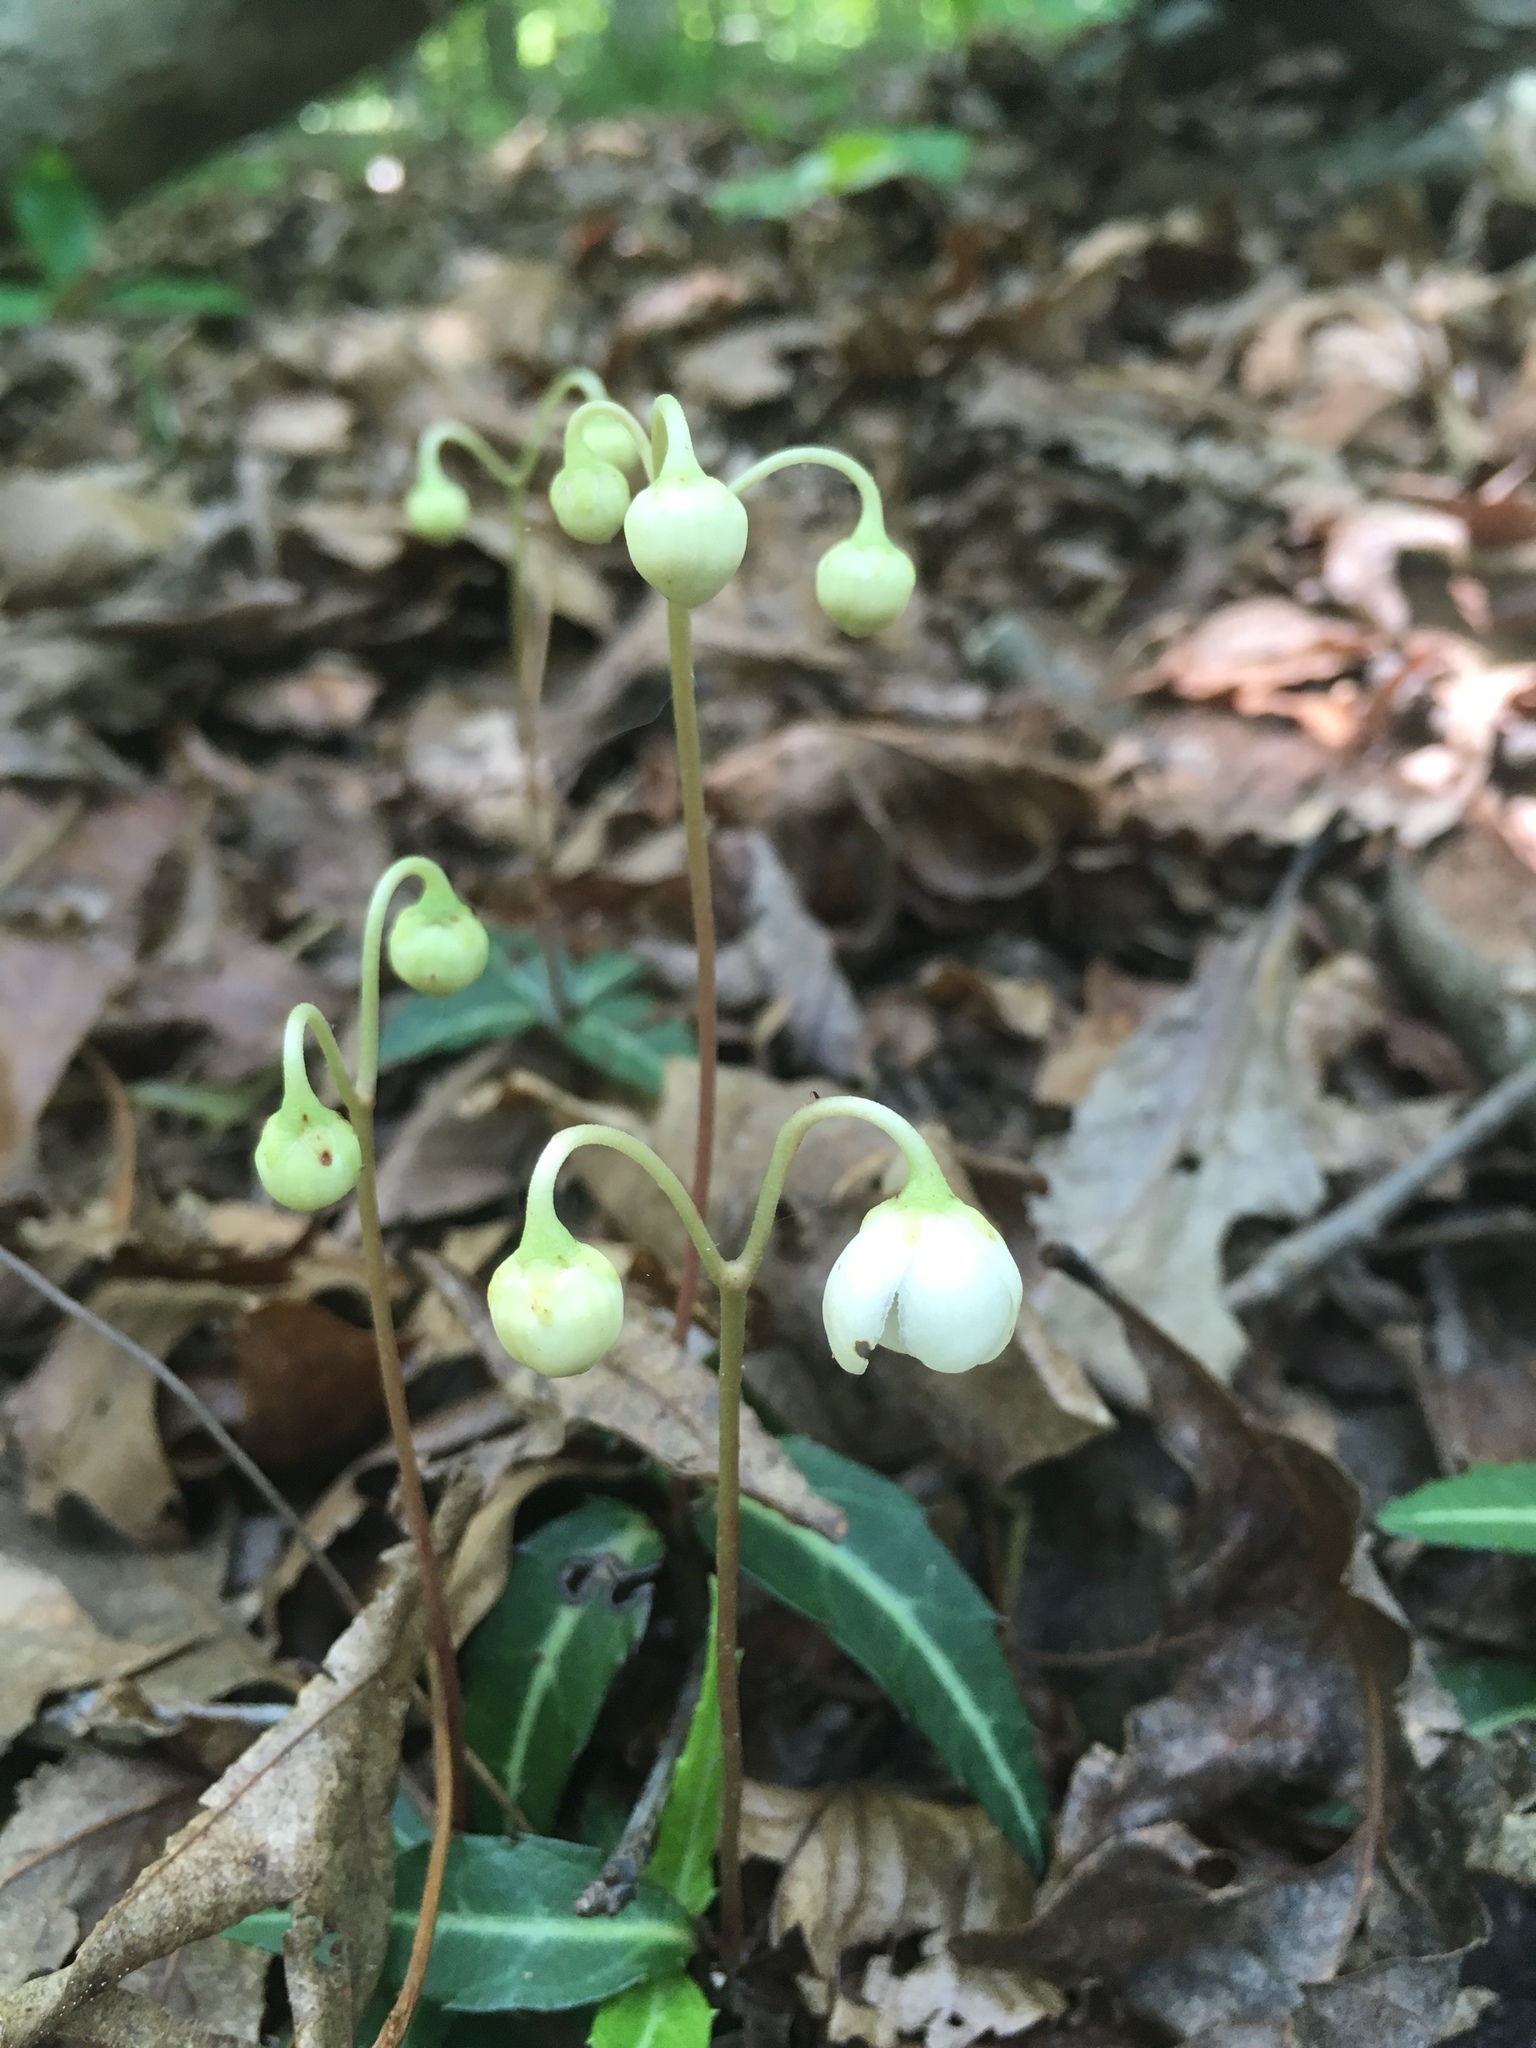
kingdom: Plantae
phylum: Tracheophyta
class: Magnoliopsida
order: Ericales
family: Ericaceae
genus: Chimaphila
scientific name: Chimaphila maculata
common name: Spotted pipsissewa
